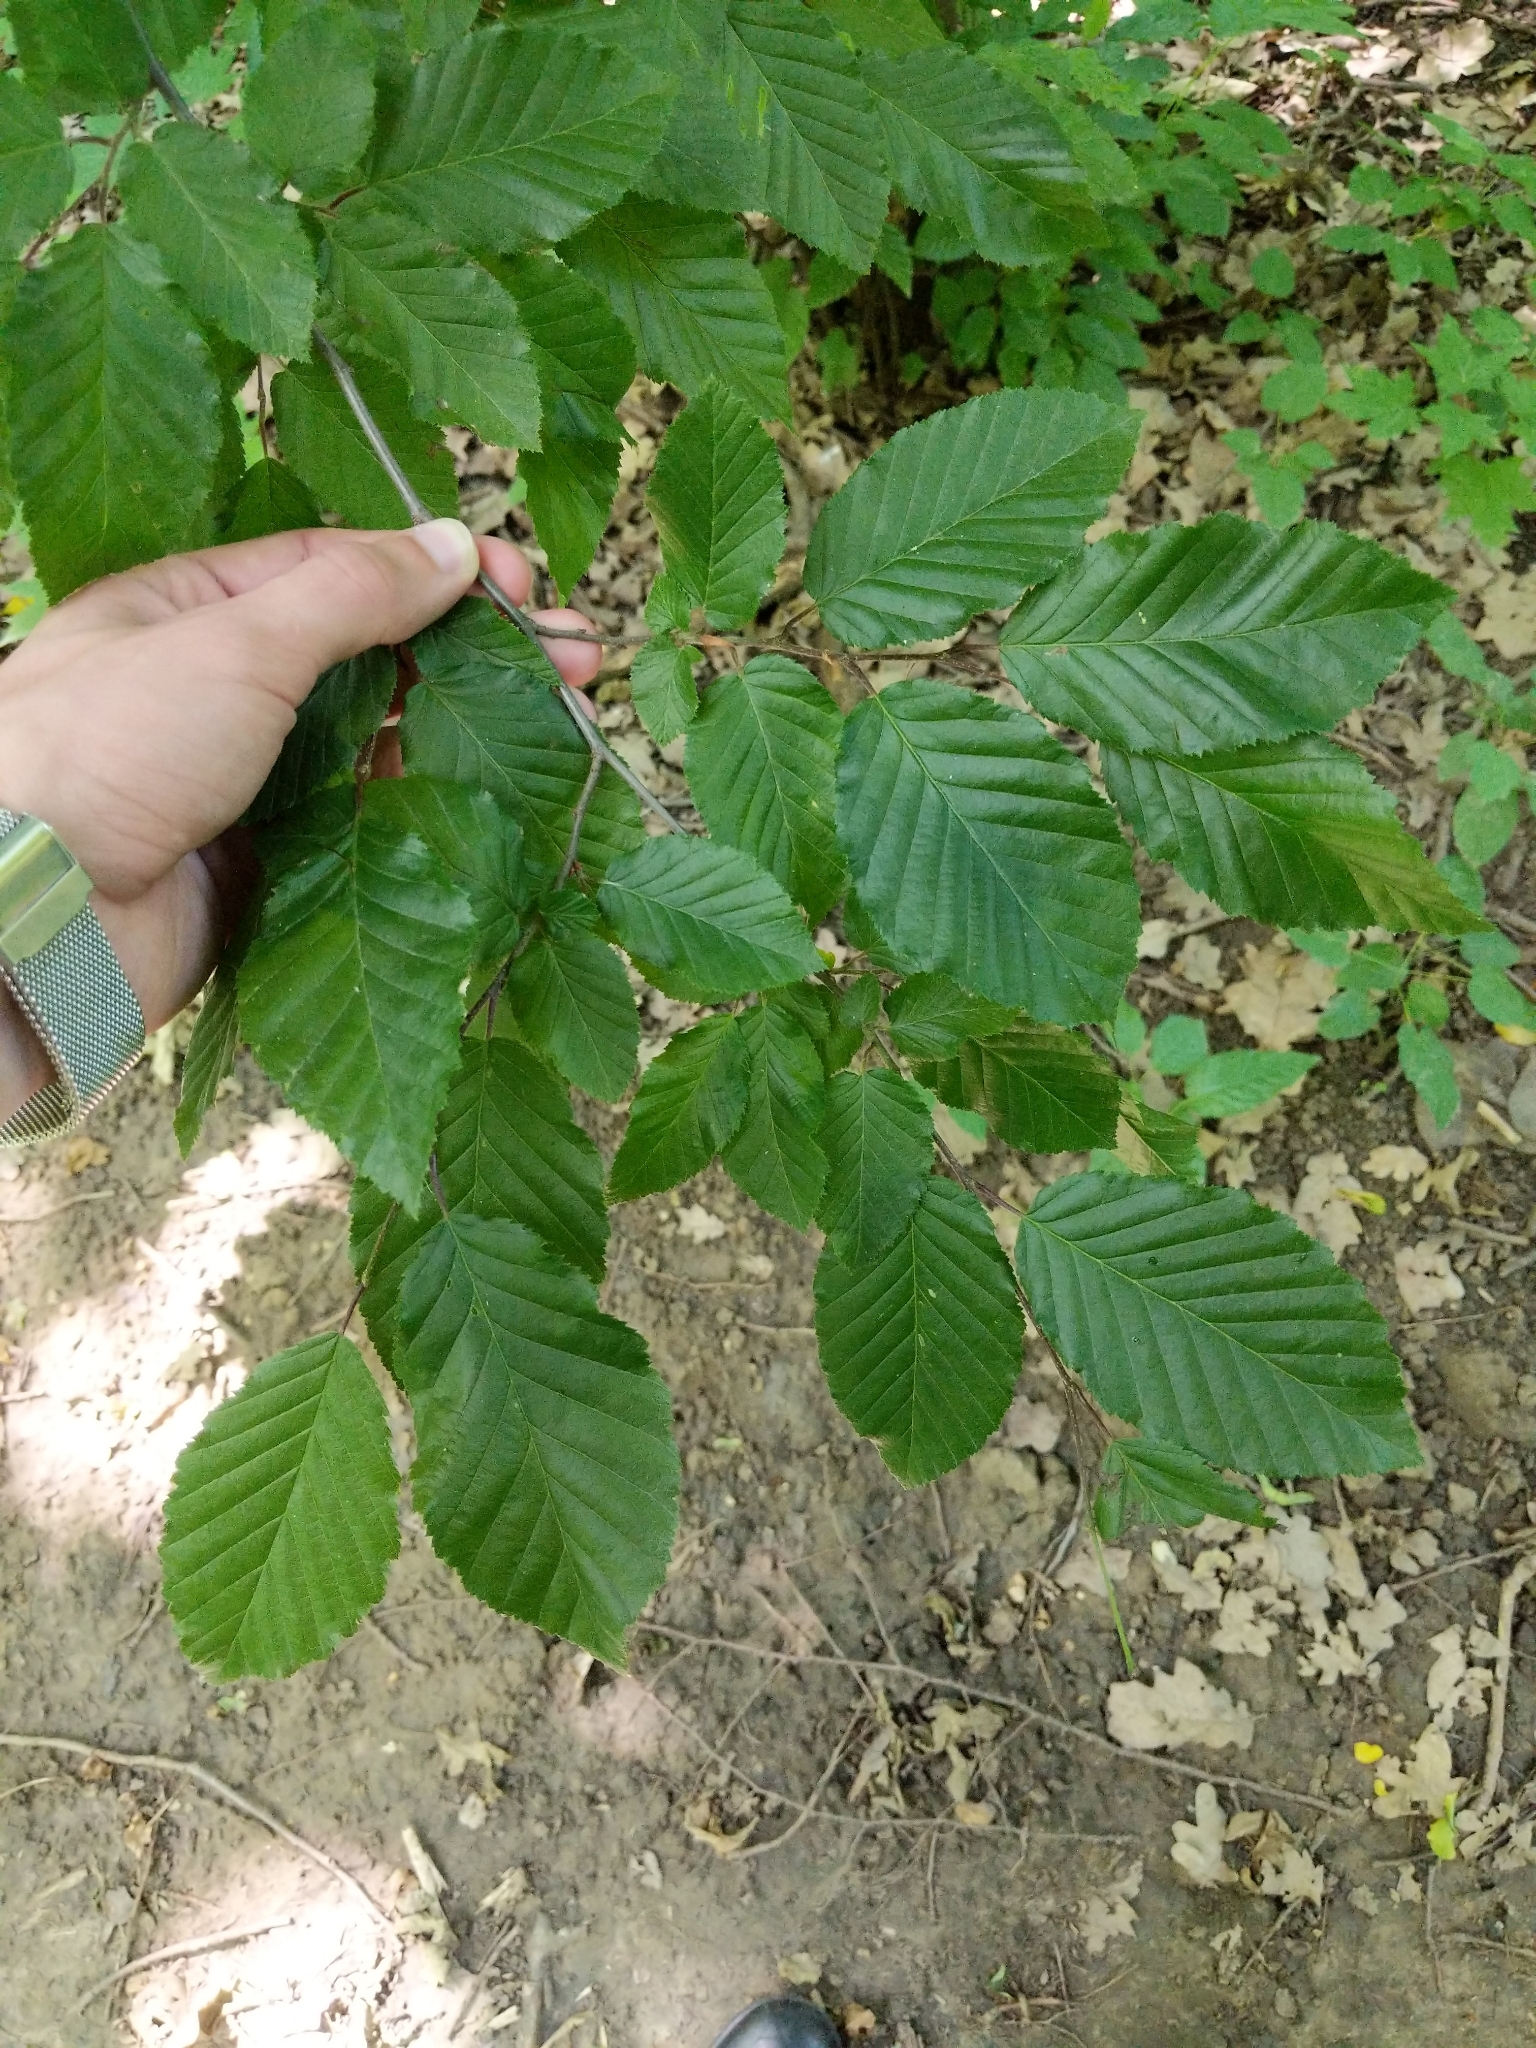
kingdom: Plantae
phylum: Tracheophyta
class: Magnoliopsida
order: Fagales
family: Betulaceae
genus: Carpinus
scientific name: Carpinus betulus
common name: Hornbeam
